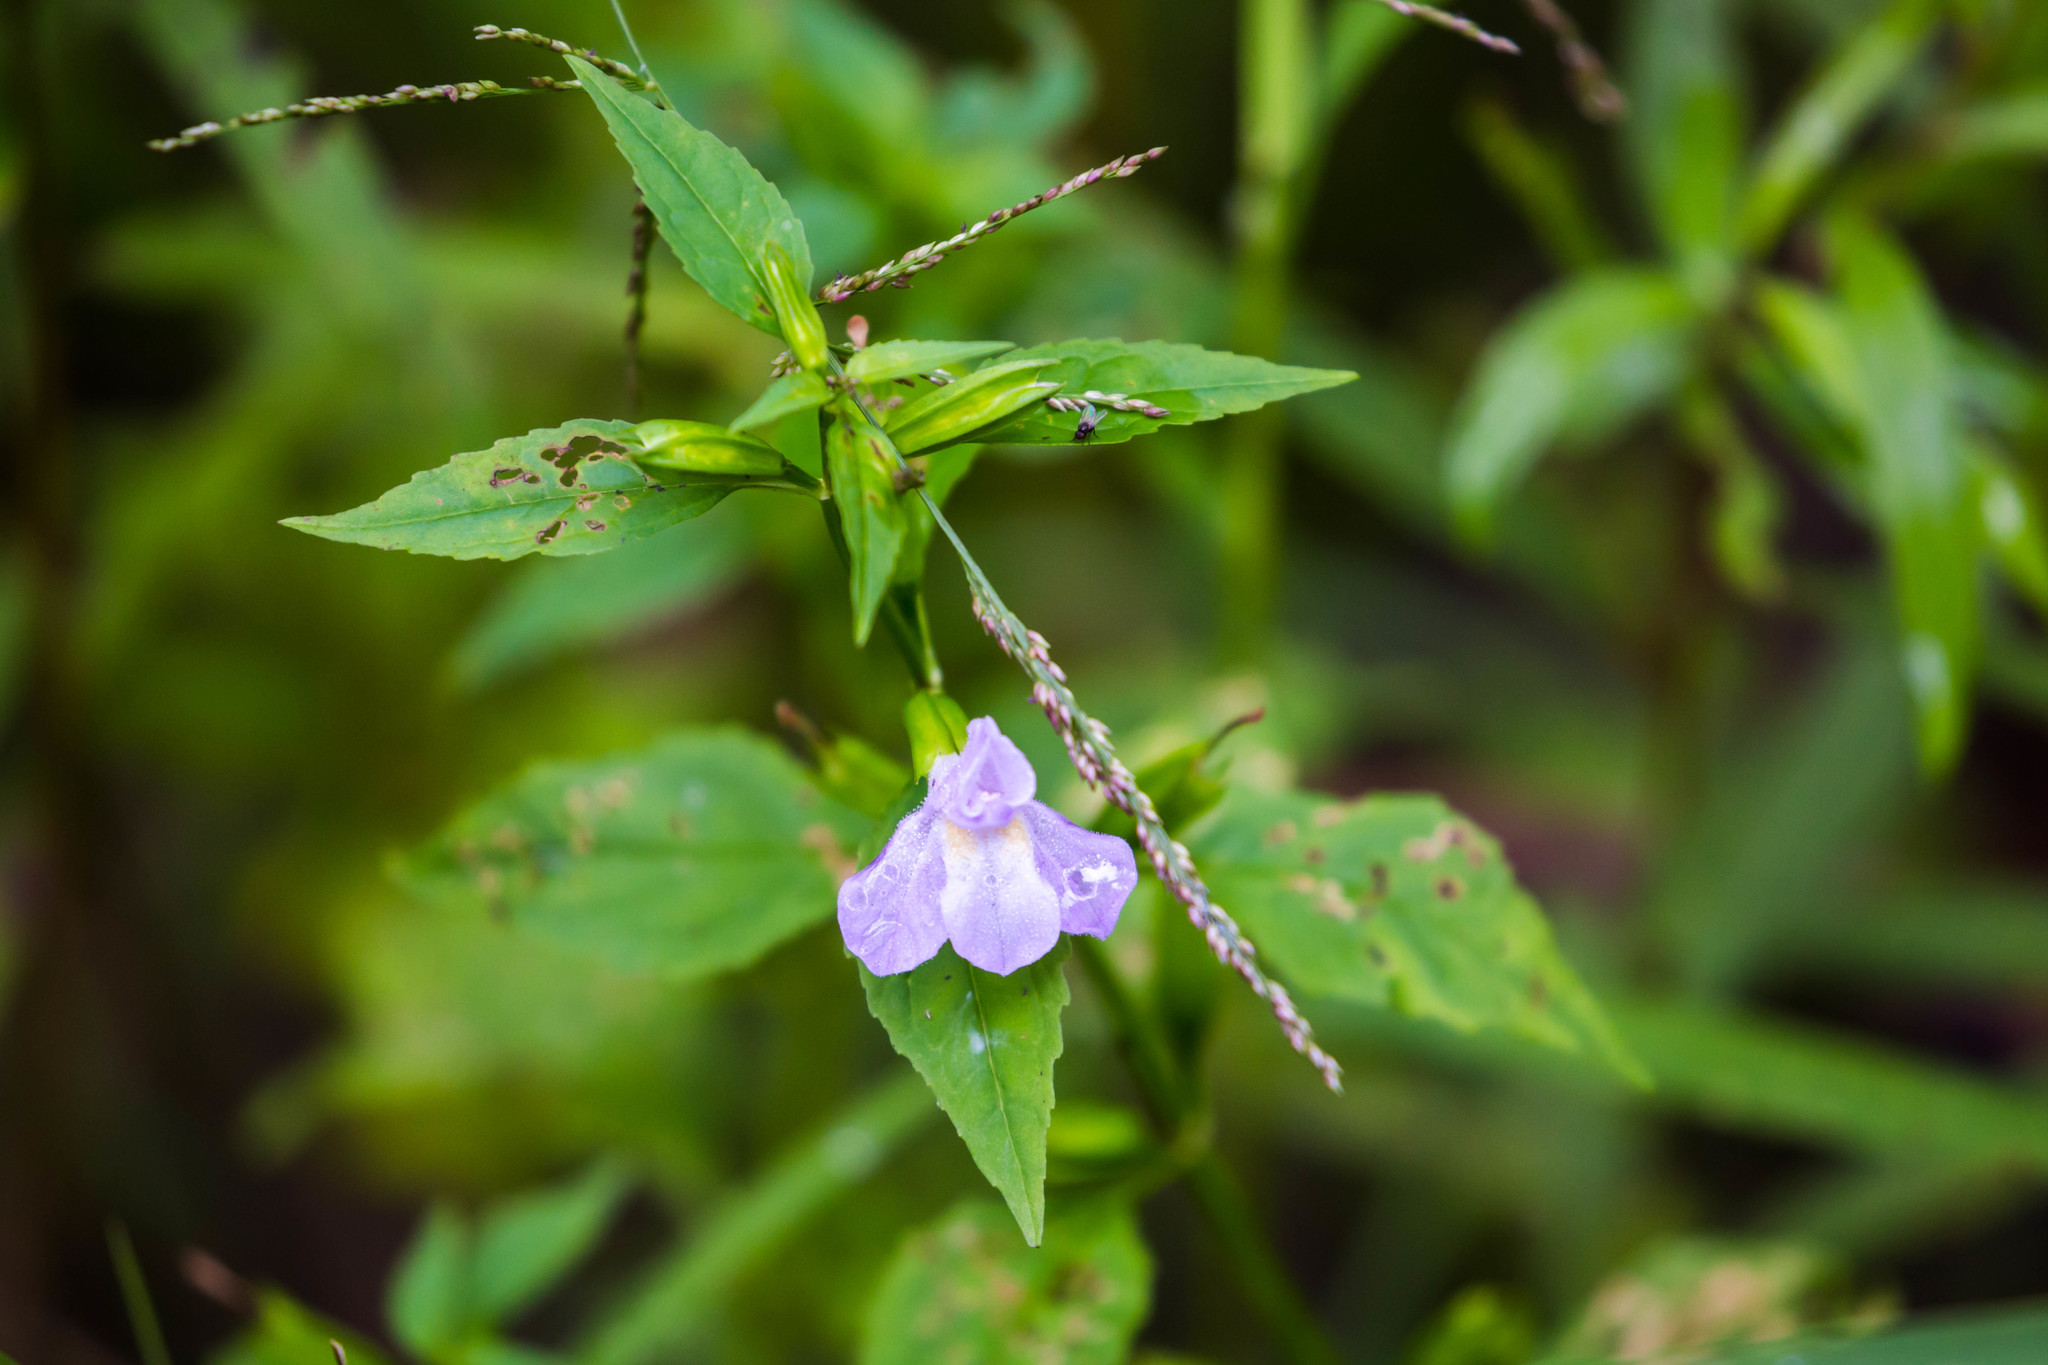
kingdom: Plantae
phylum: Tracheophyta
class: Magnoliopsida
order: Lamiales
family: Phrymaceae
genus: Mimulus
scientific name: Mimulus alatus
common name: Sharp-wing monkey-flower
